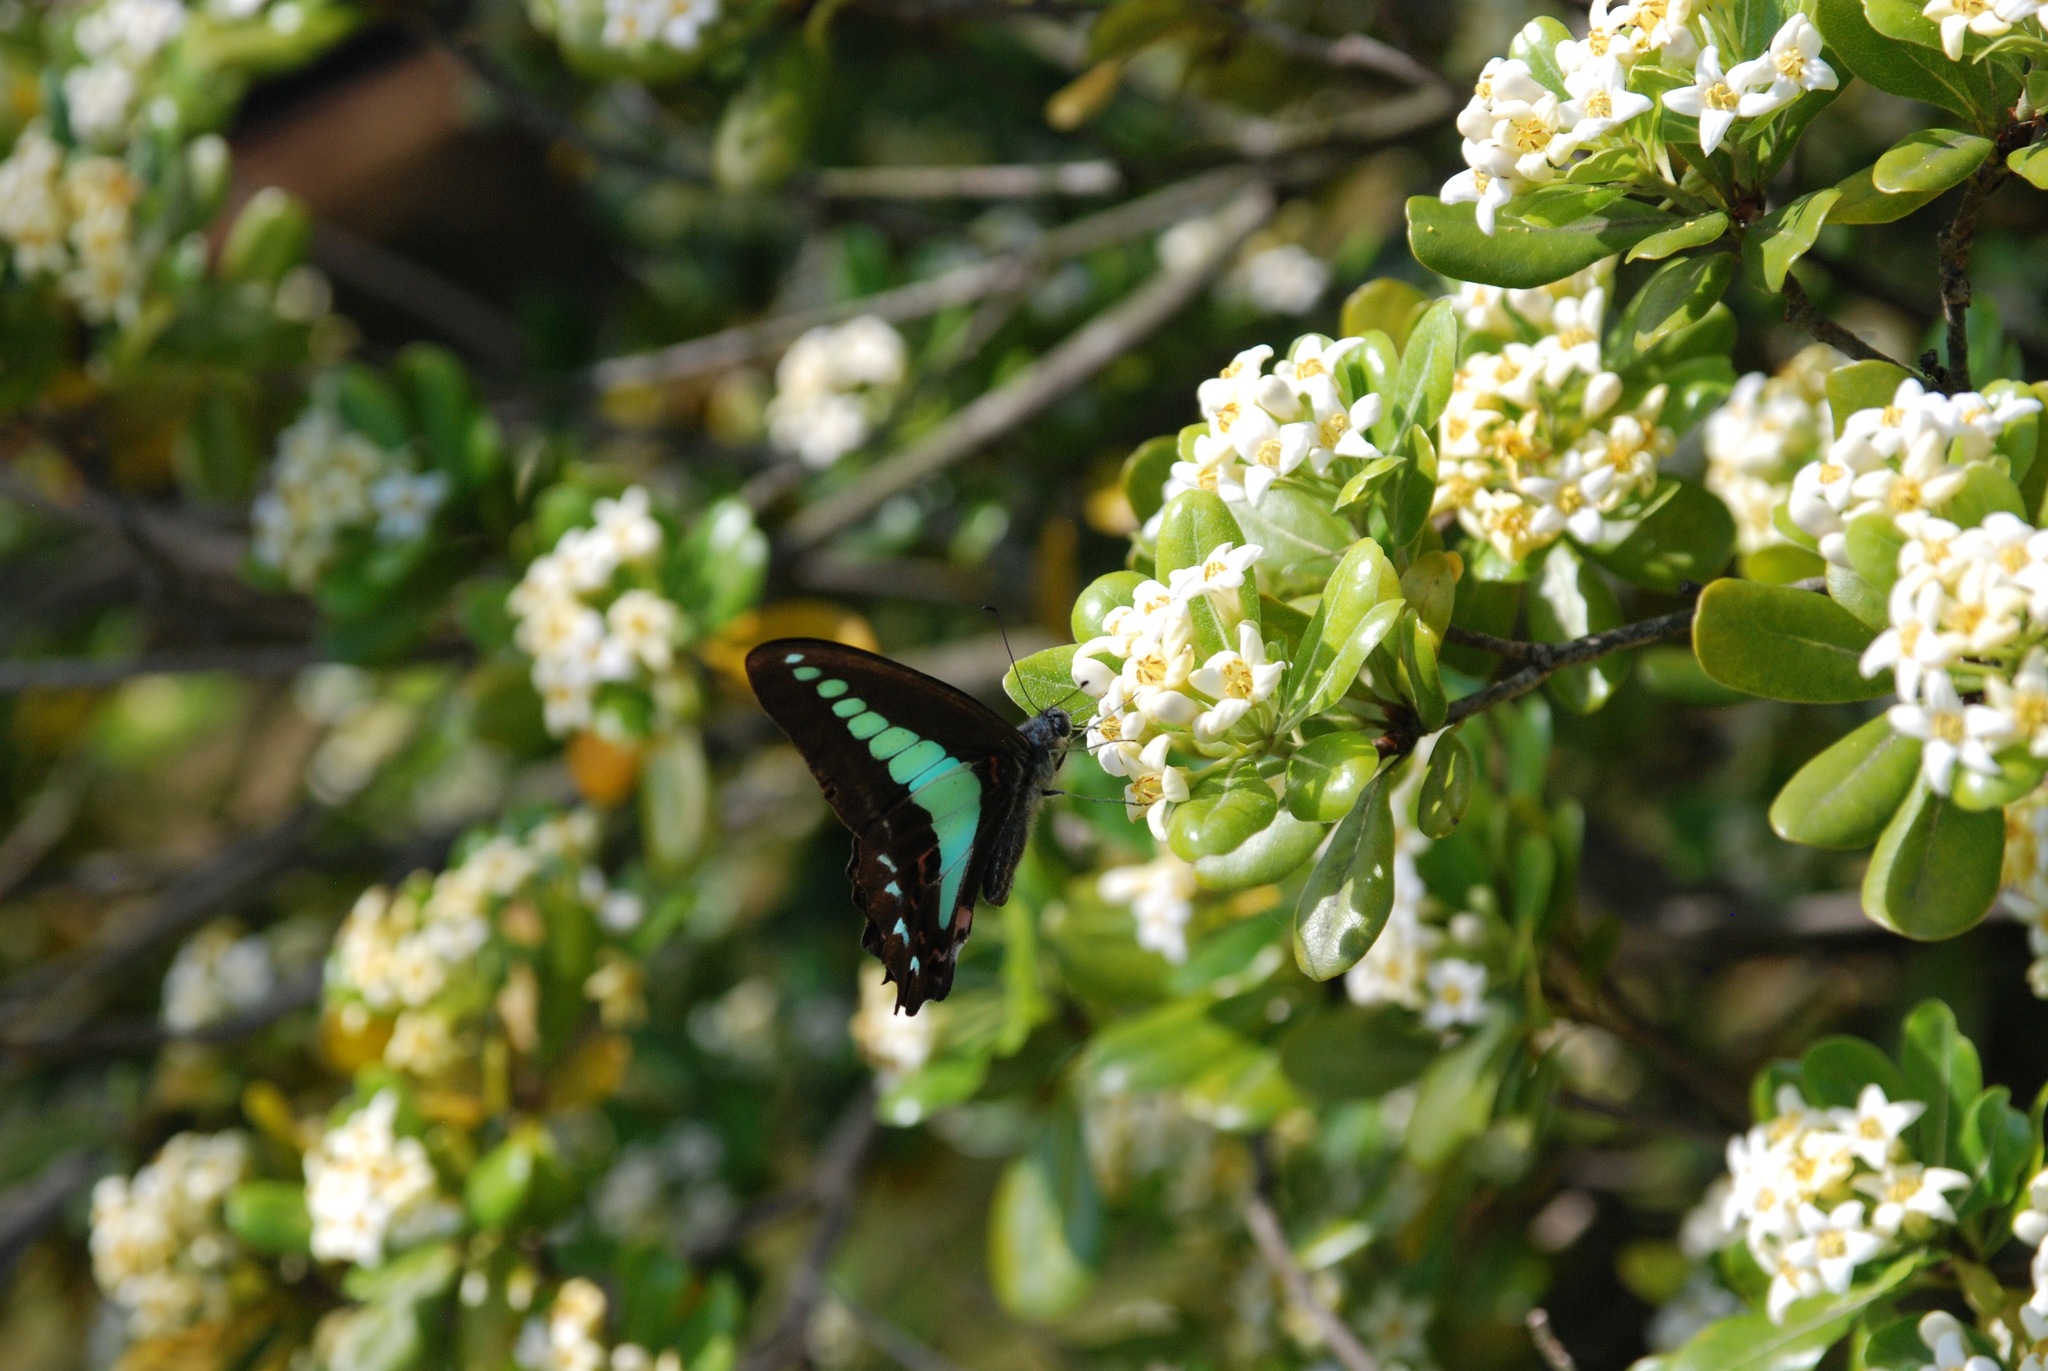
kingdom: Fungi
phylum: Ascomycota
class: Sordariomycetes
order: Microascales
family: Microascaceae
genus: Graphium
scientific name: Graphium sarpedon
